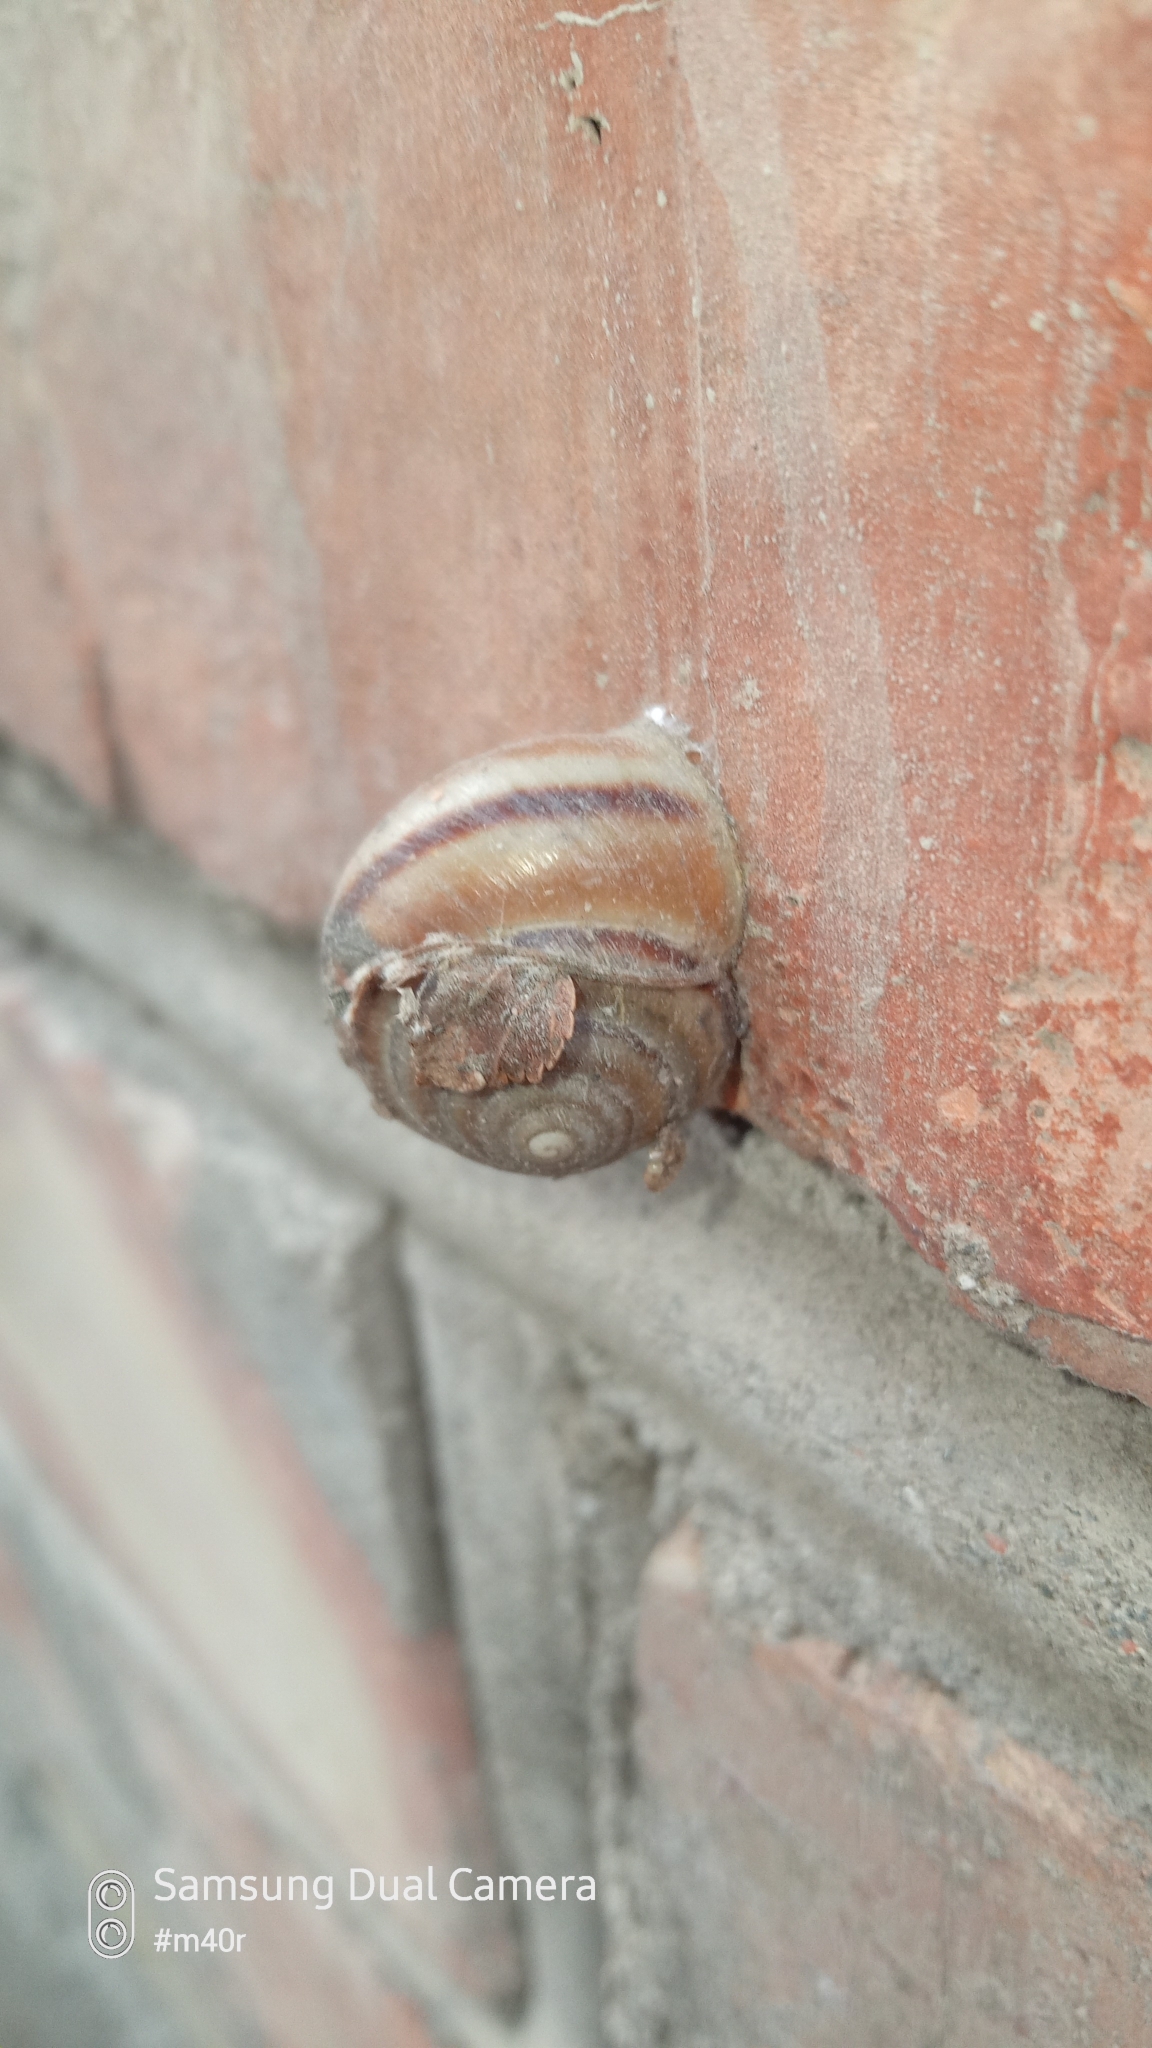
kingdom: Animalia
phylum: Mollusca
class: Gastropoda
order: Stylommatophora
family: Camaenidae
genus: Fruticicola
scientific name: Fruticicola lantzi
